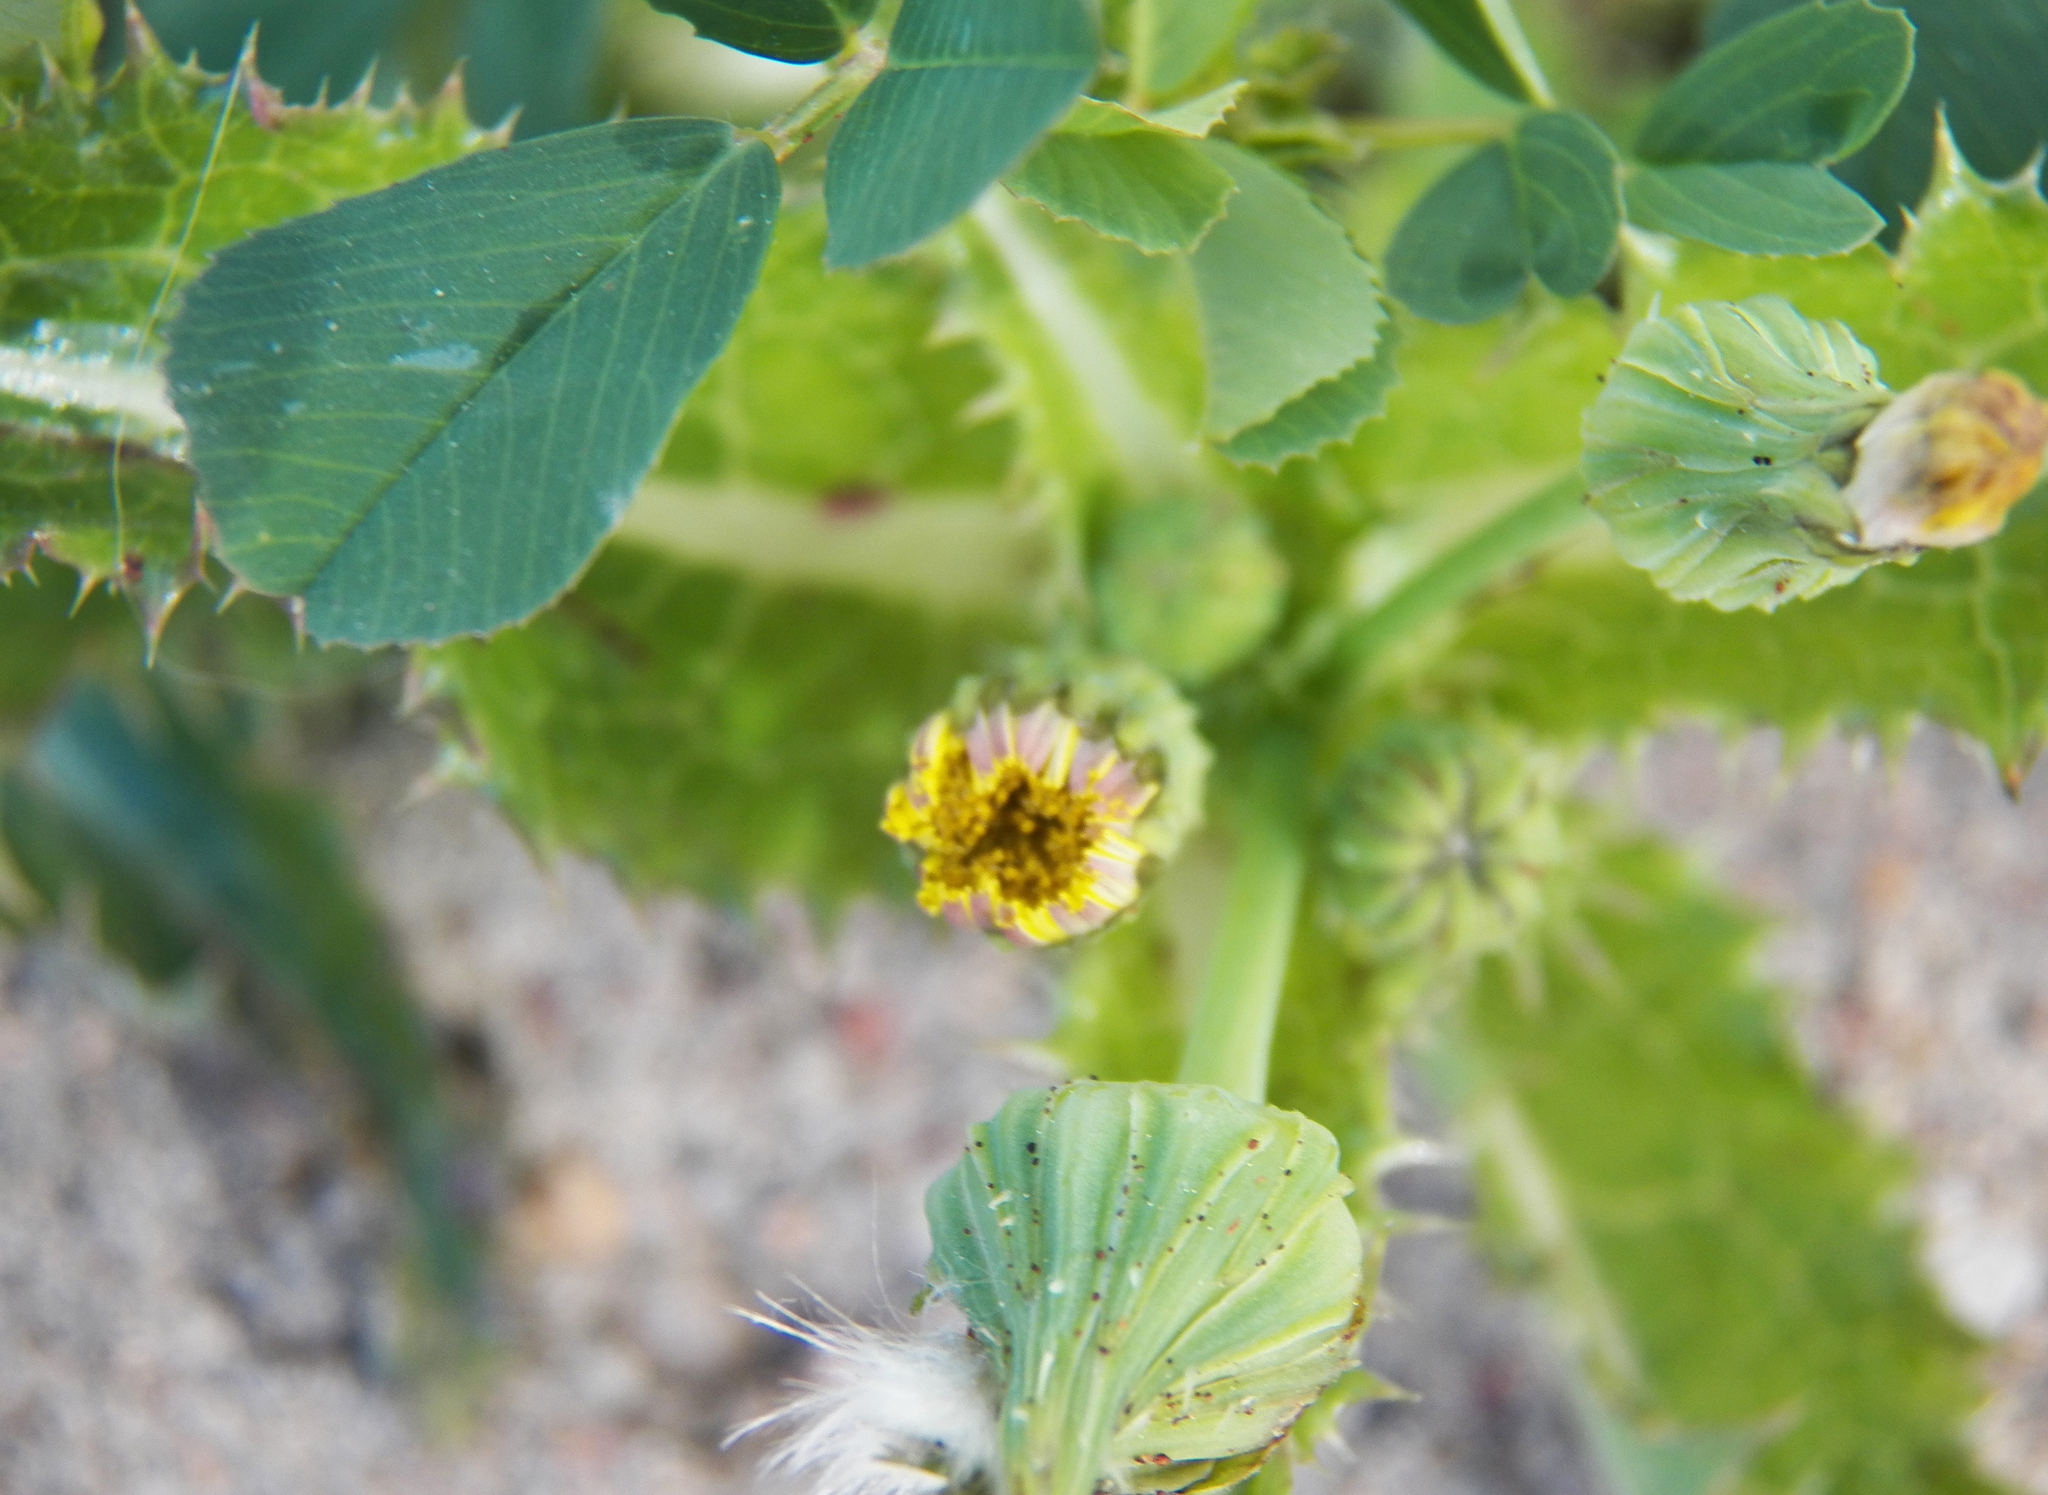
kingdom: Plantae
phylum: Tracheophyta
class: Magnoliopsida
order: Asterales
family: Asteraceae
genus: Sonchus
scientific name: Sonchus asper
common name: Prickly sow-thistle
